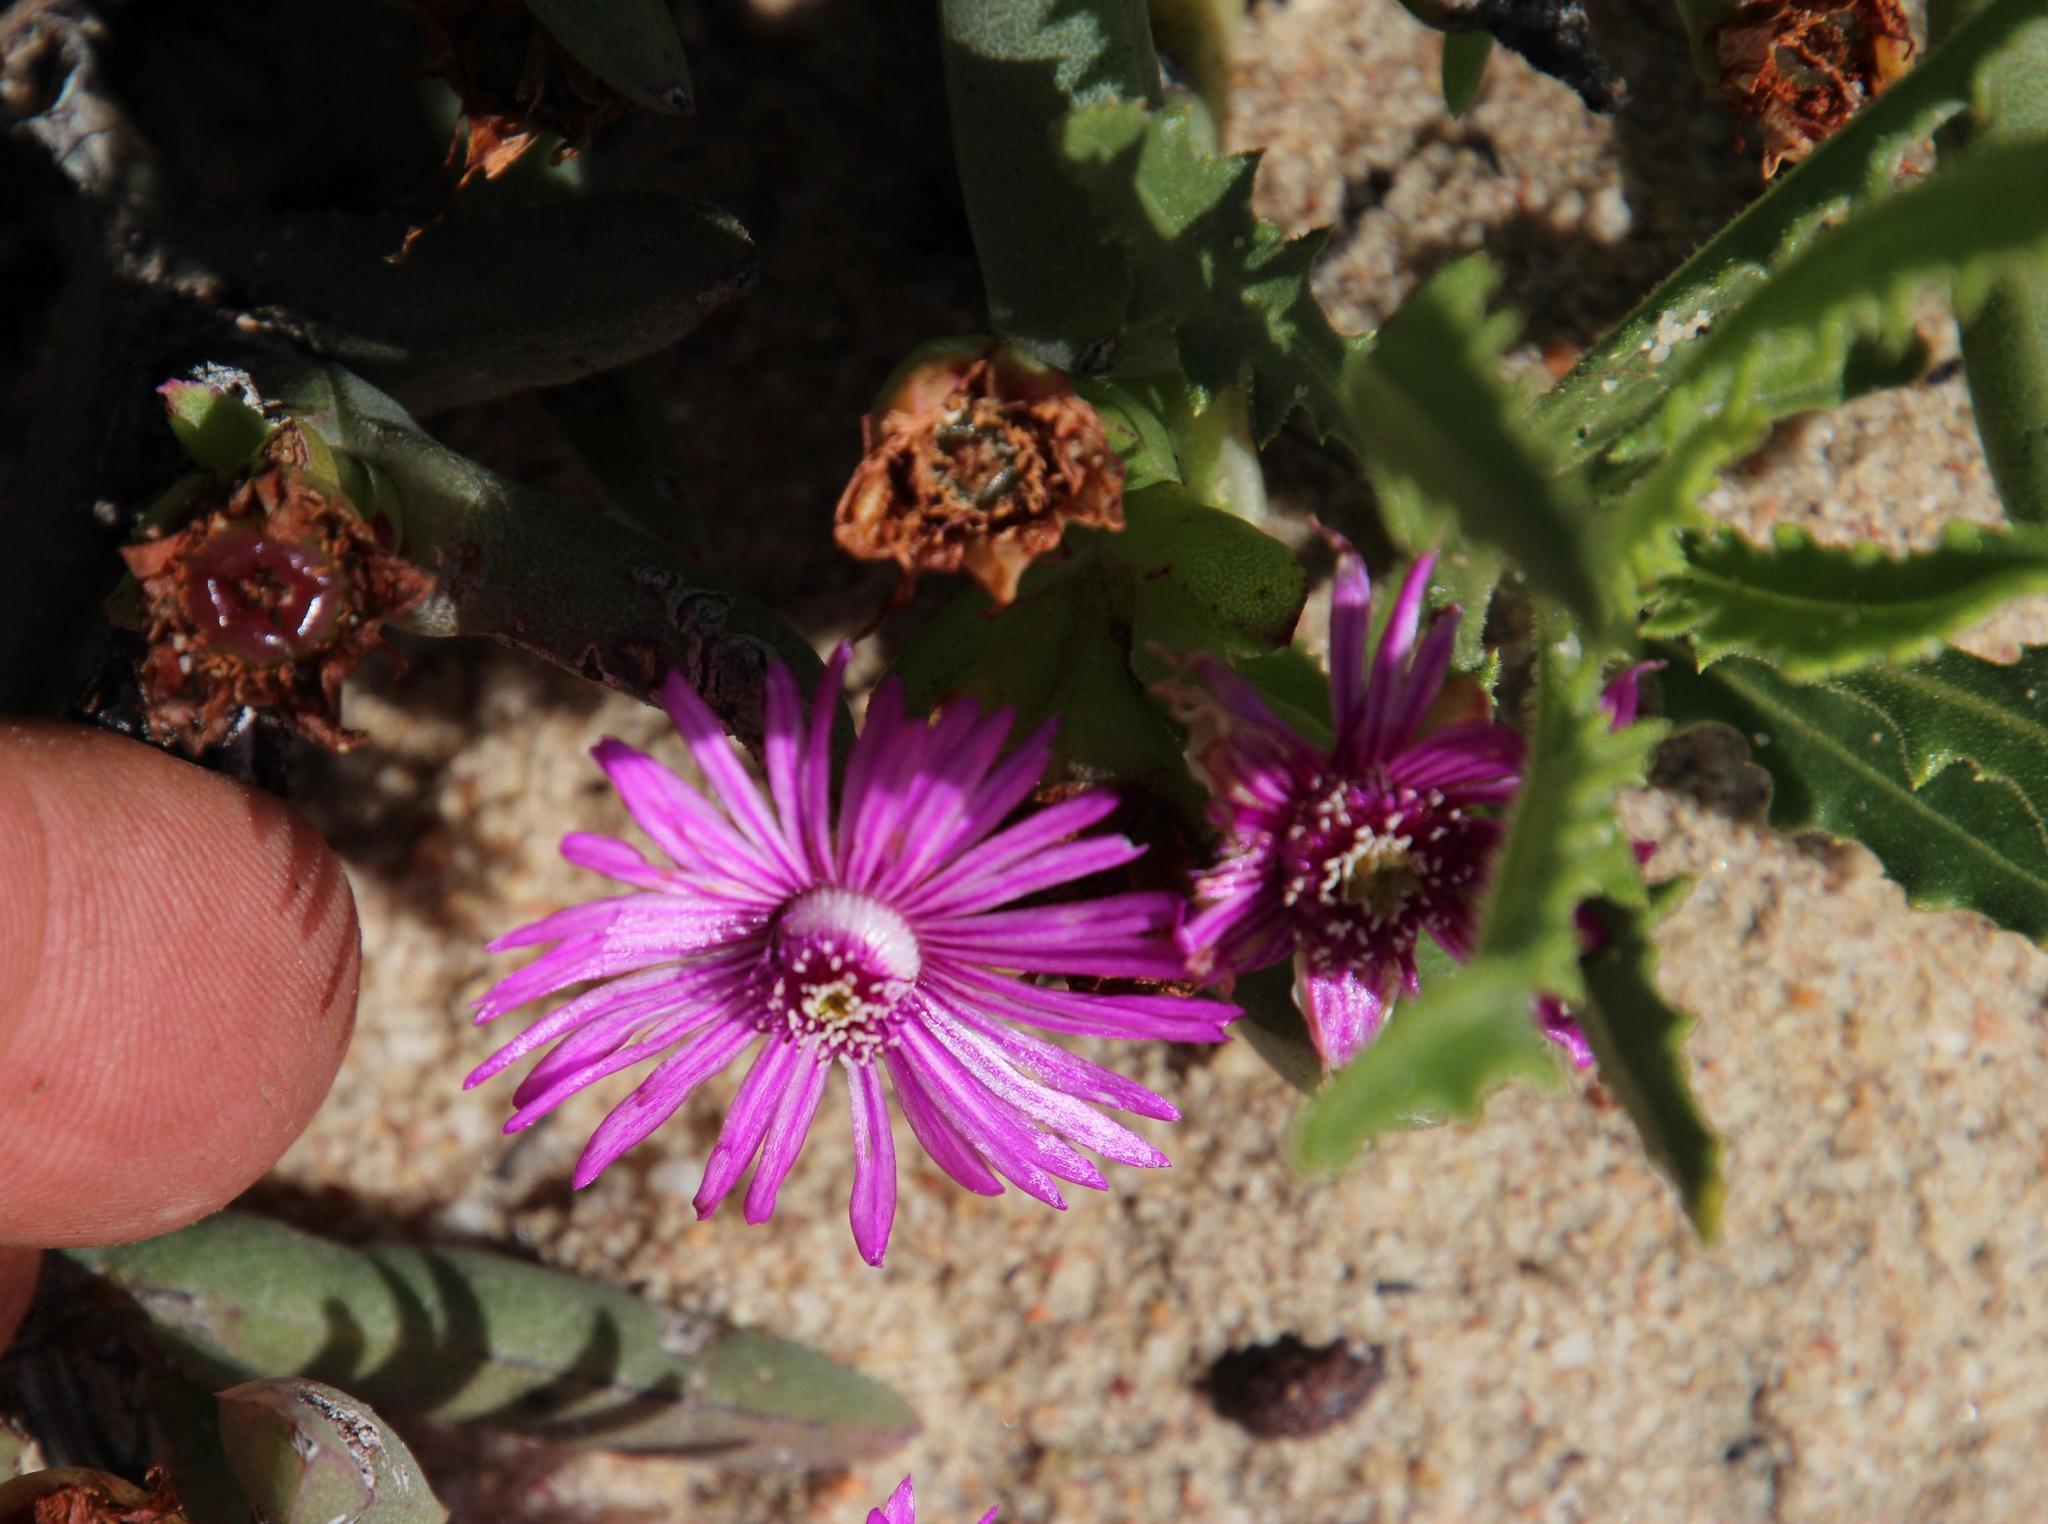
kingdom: Plantae
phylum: Tracheophyta
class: Magnoliopsida
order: Caryophyllales
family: Aizoaceae
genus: Ruschia
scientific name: Ruschia dichroa
